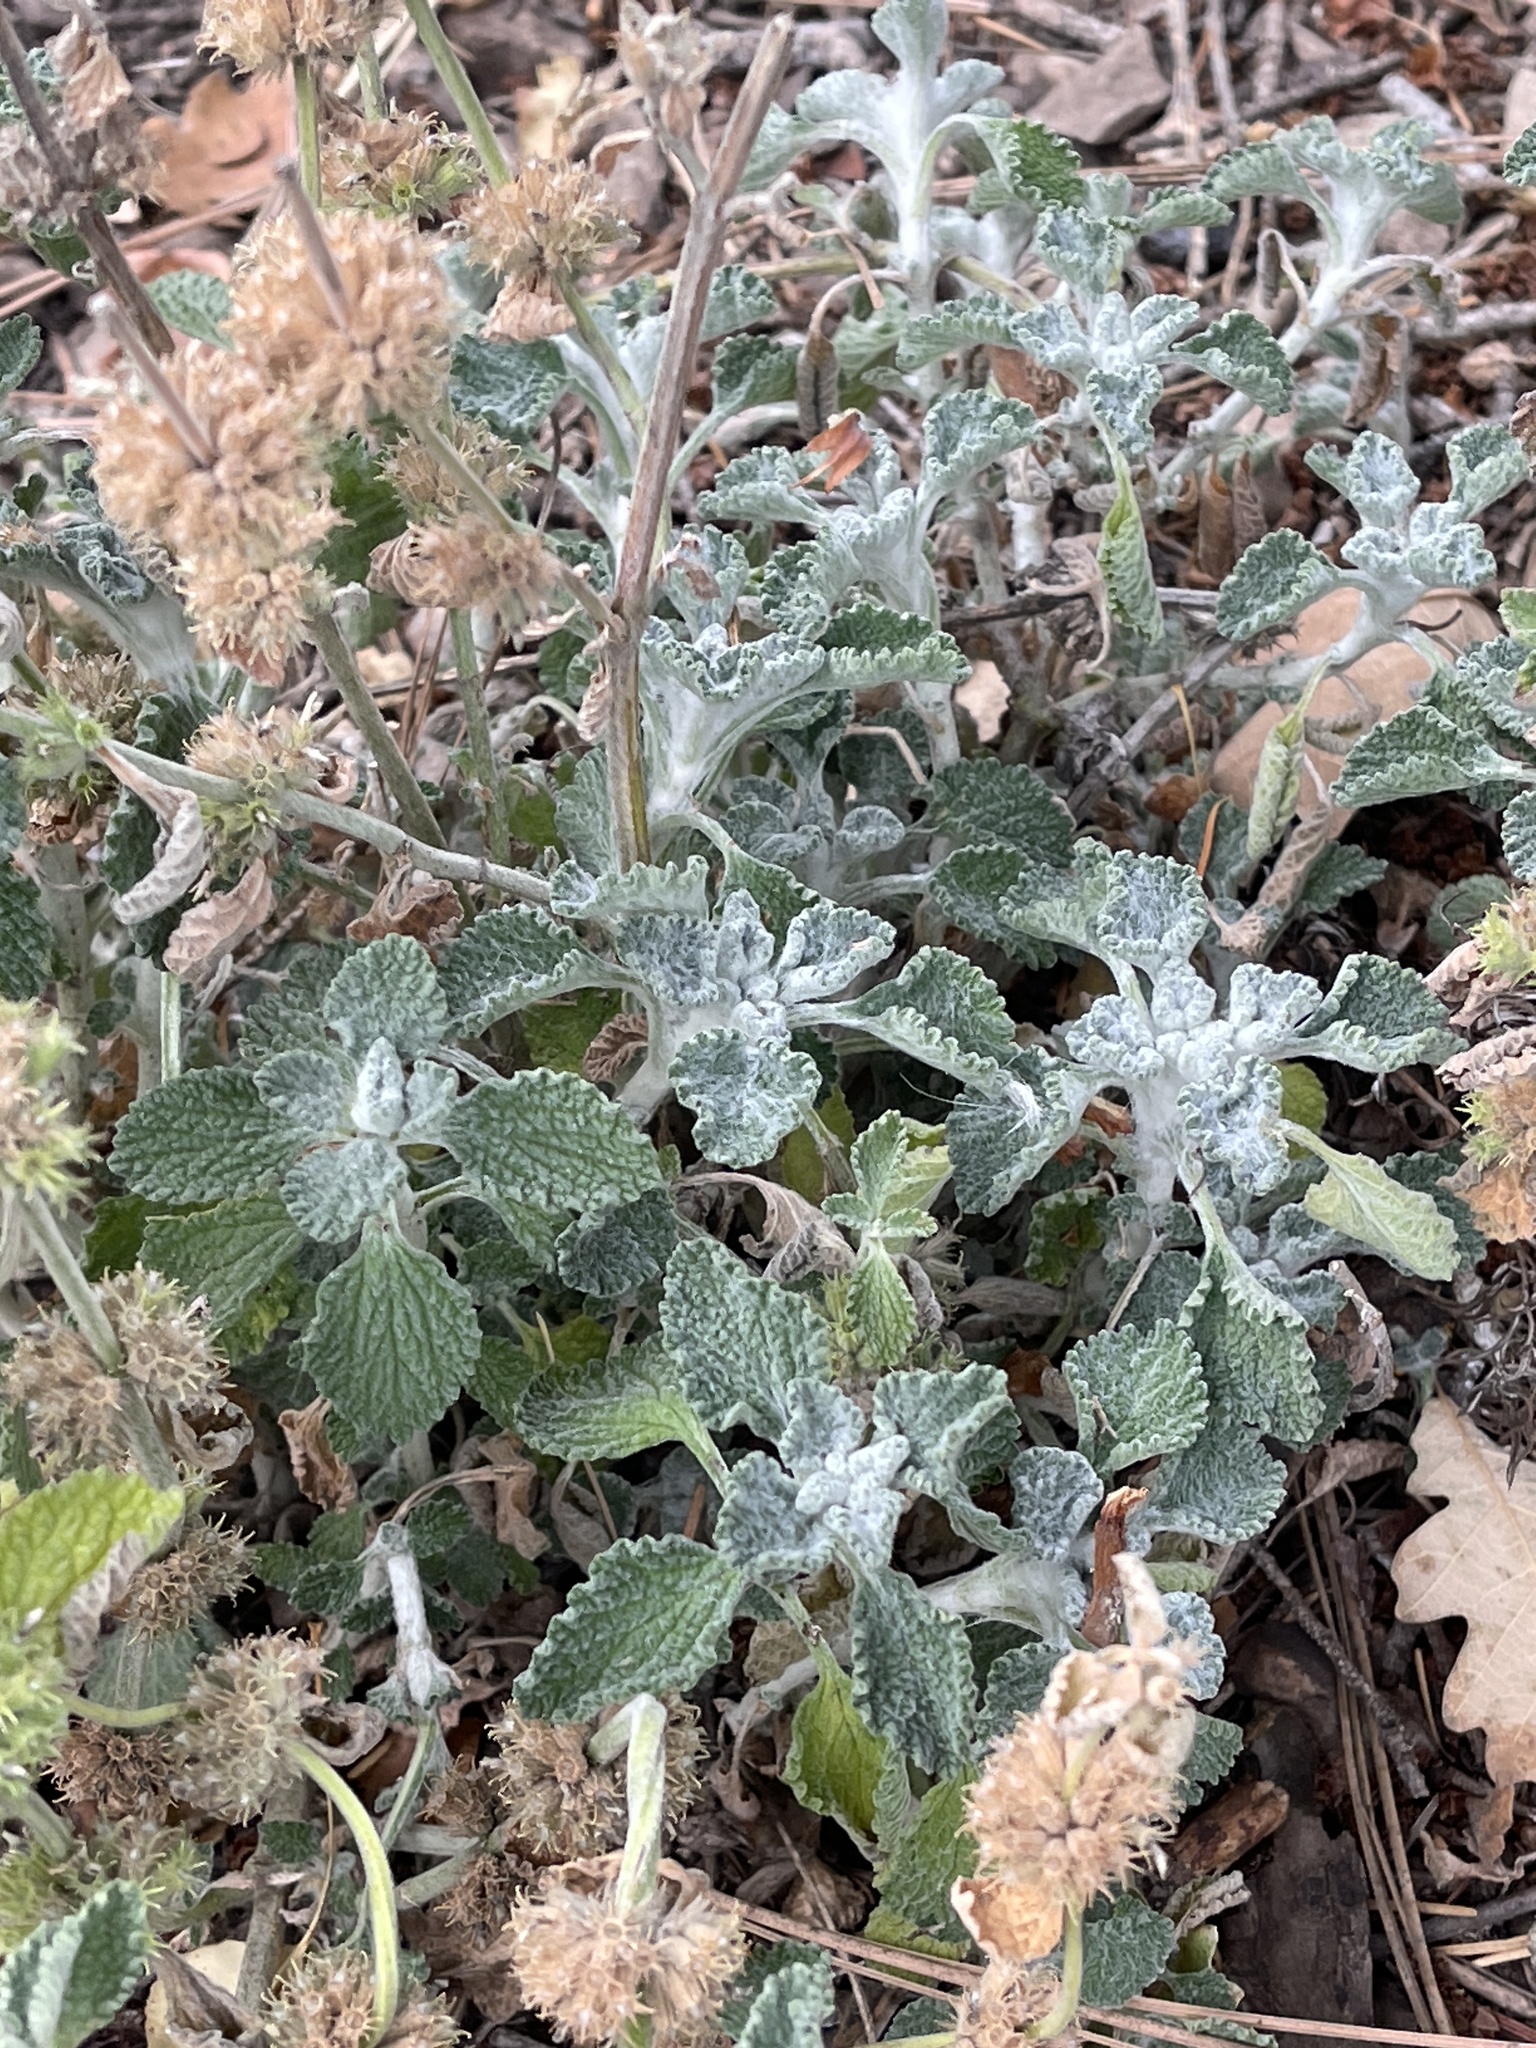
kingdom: Plantae
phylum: Tracheophyta
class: Magnoliopsida
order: Lamiales
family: Lamiaceae
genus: Marrubium
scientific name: Marrubium vulgare
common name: Horehound
